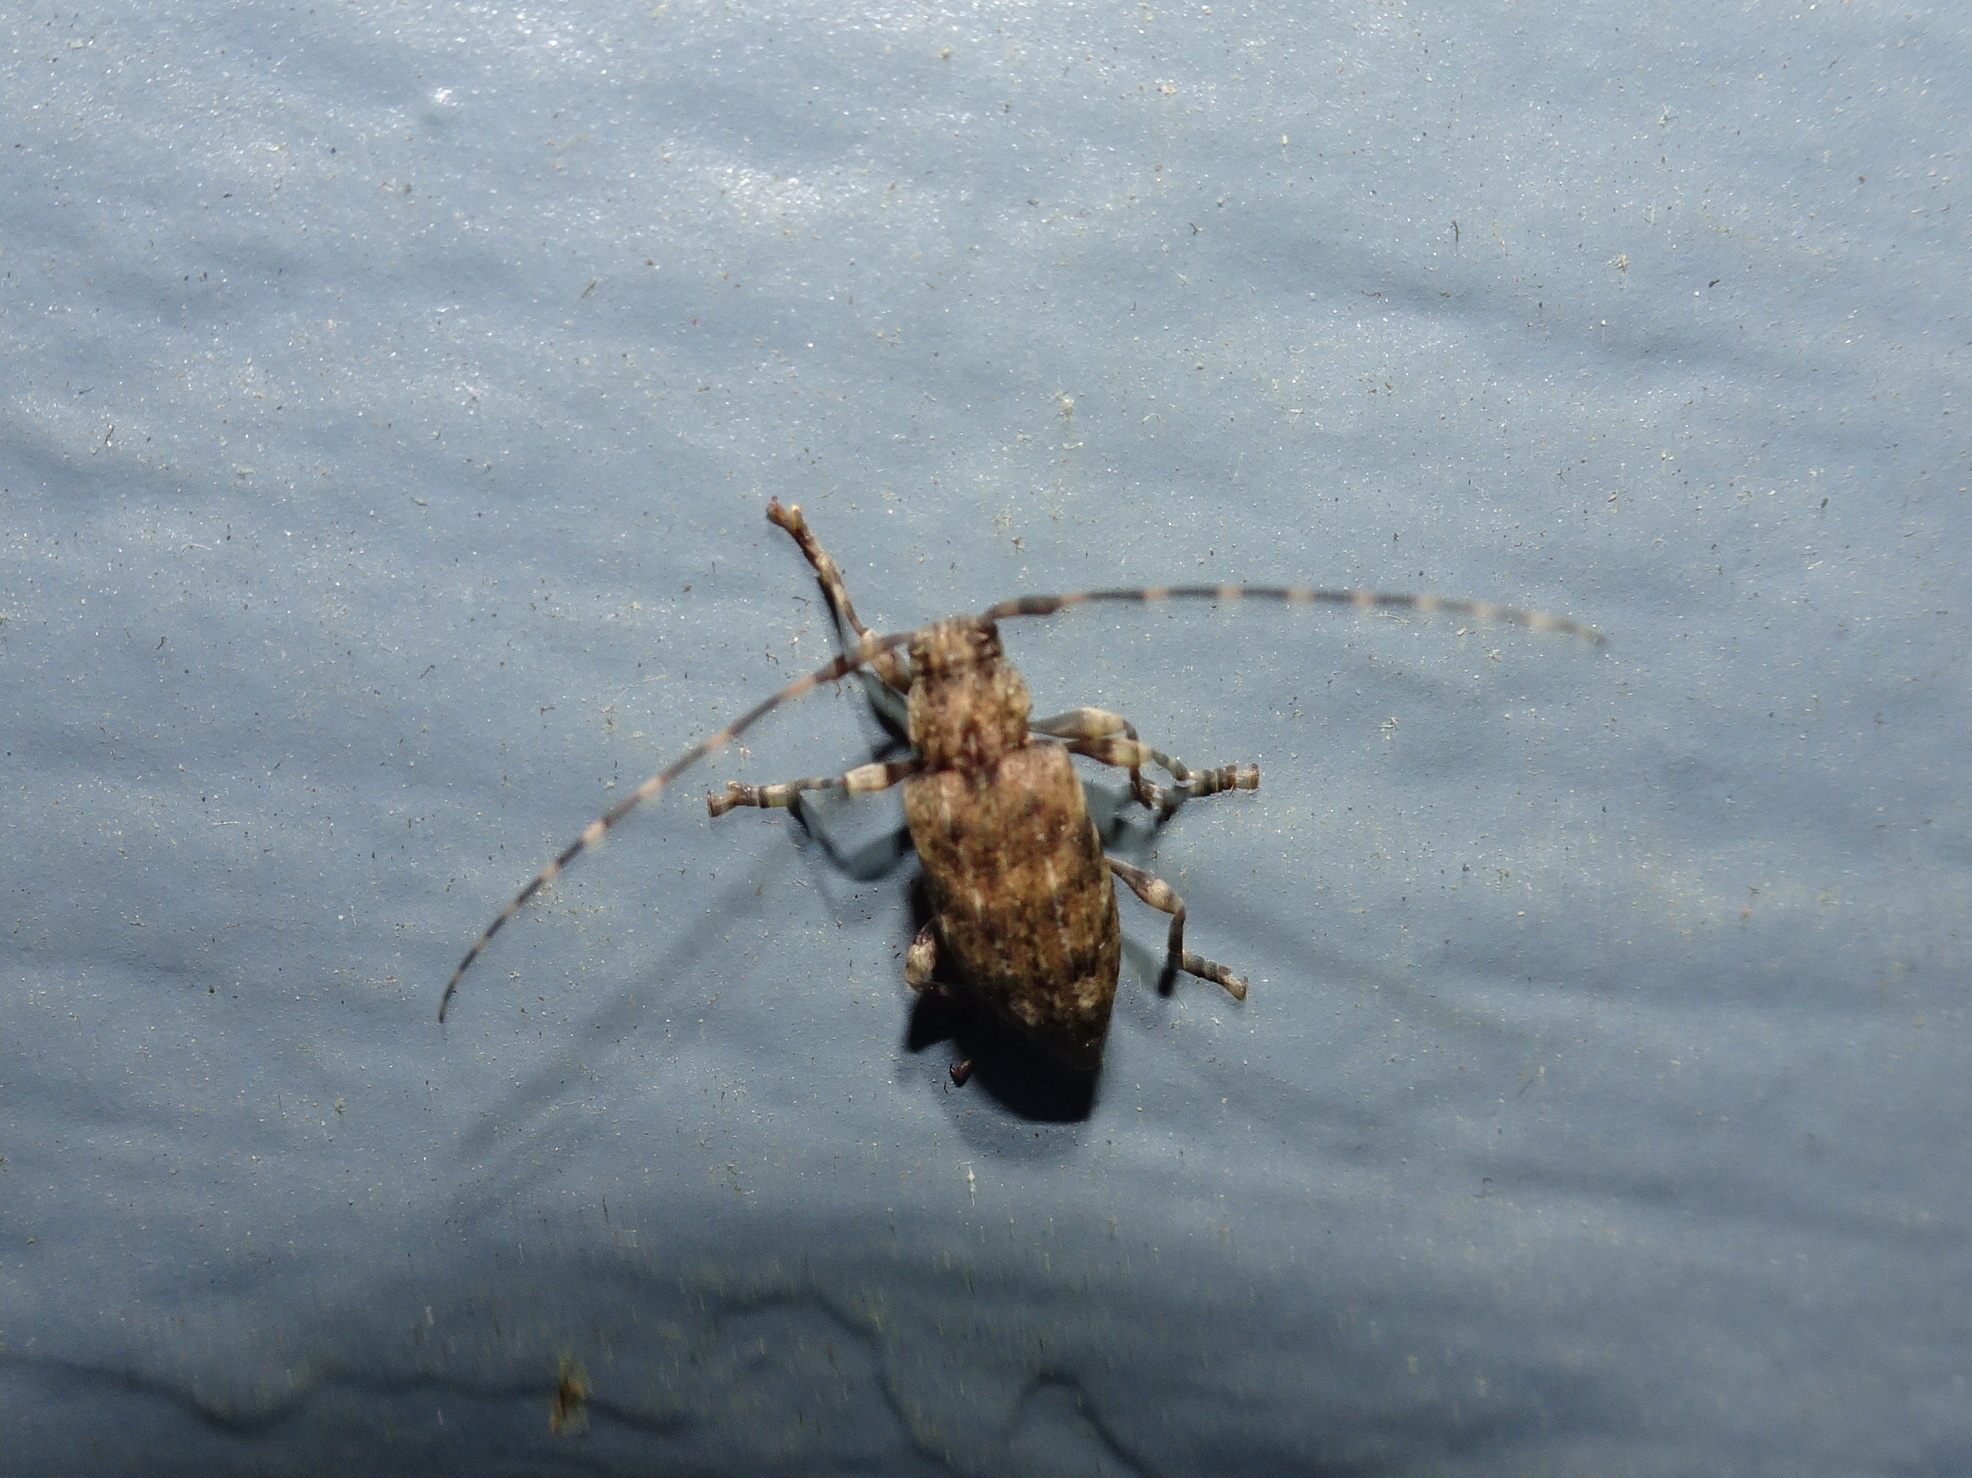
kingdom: Animalia
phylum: Arthropoda
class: Insecta
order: Coleoptera
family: Cerambycidae
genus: Astyleiopus
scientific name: Astyleiopus variegatus
